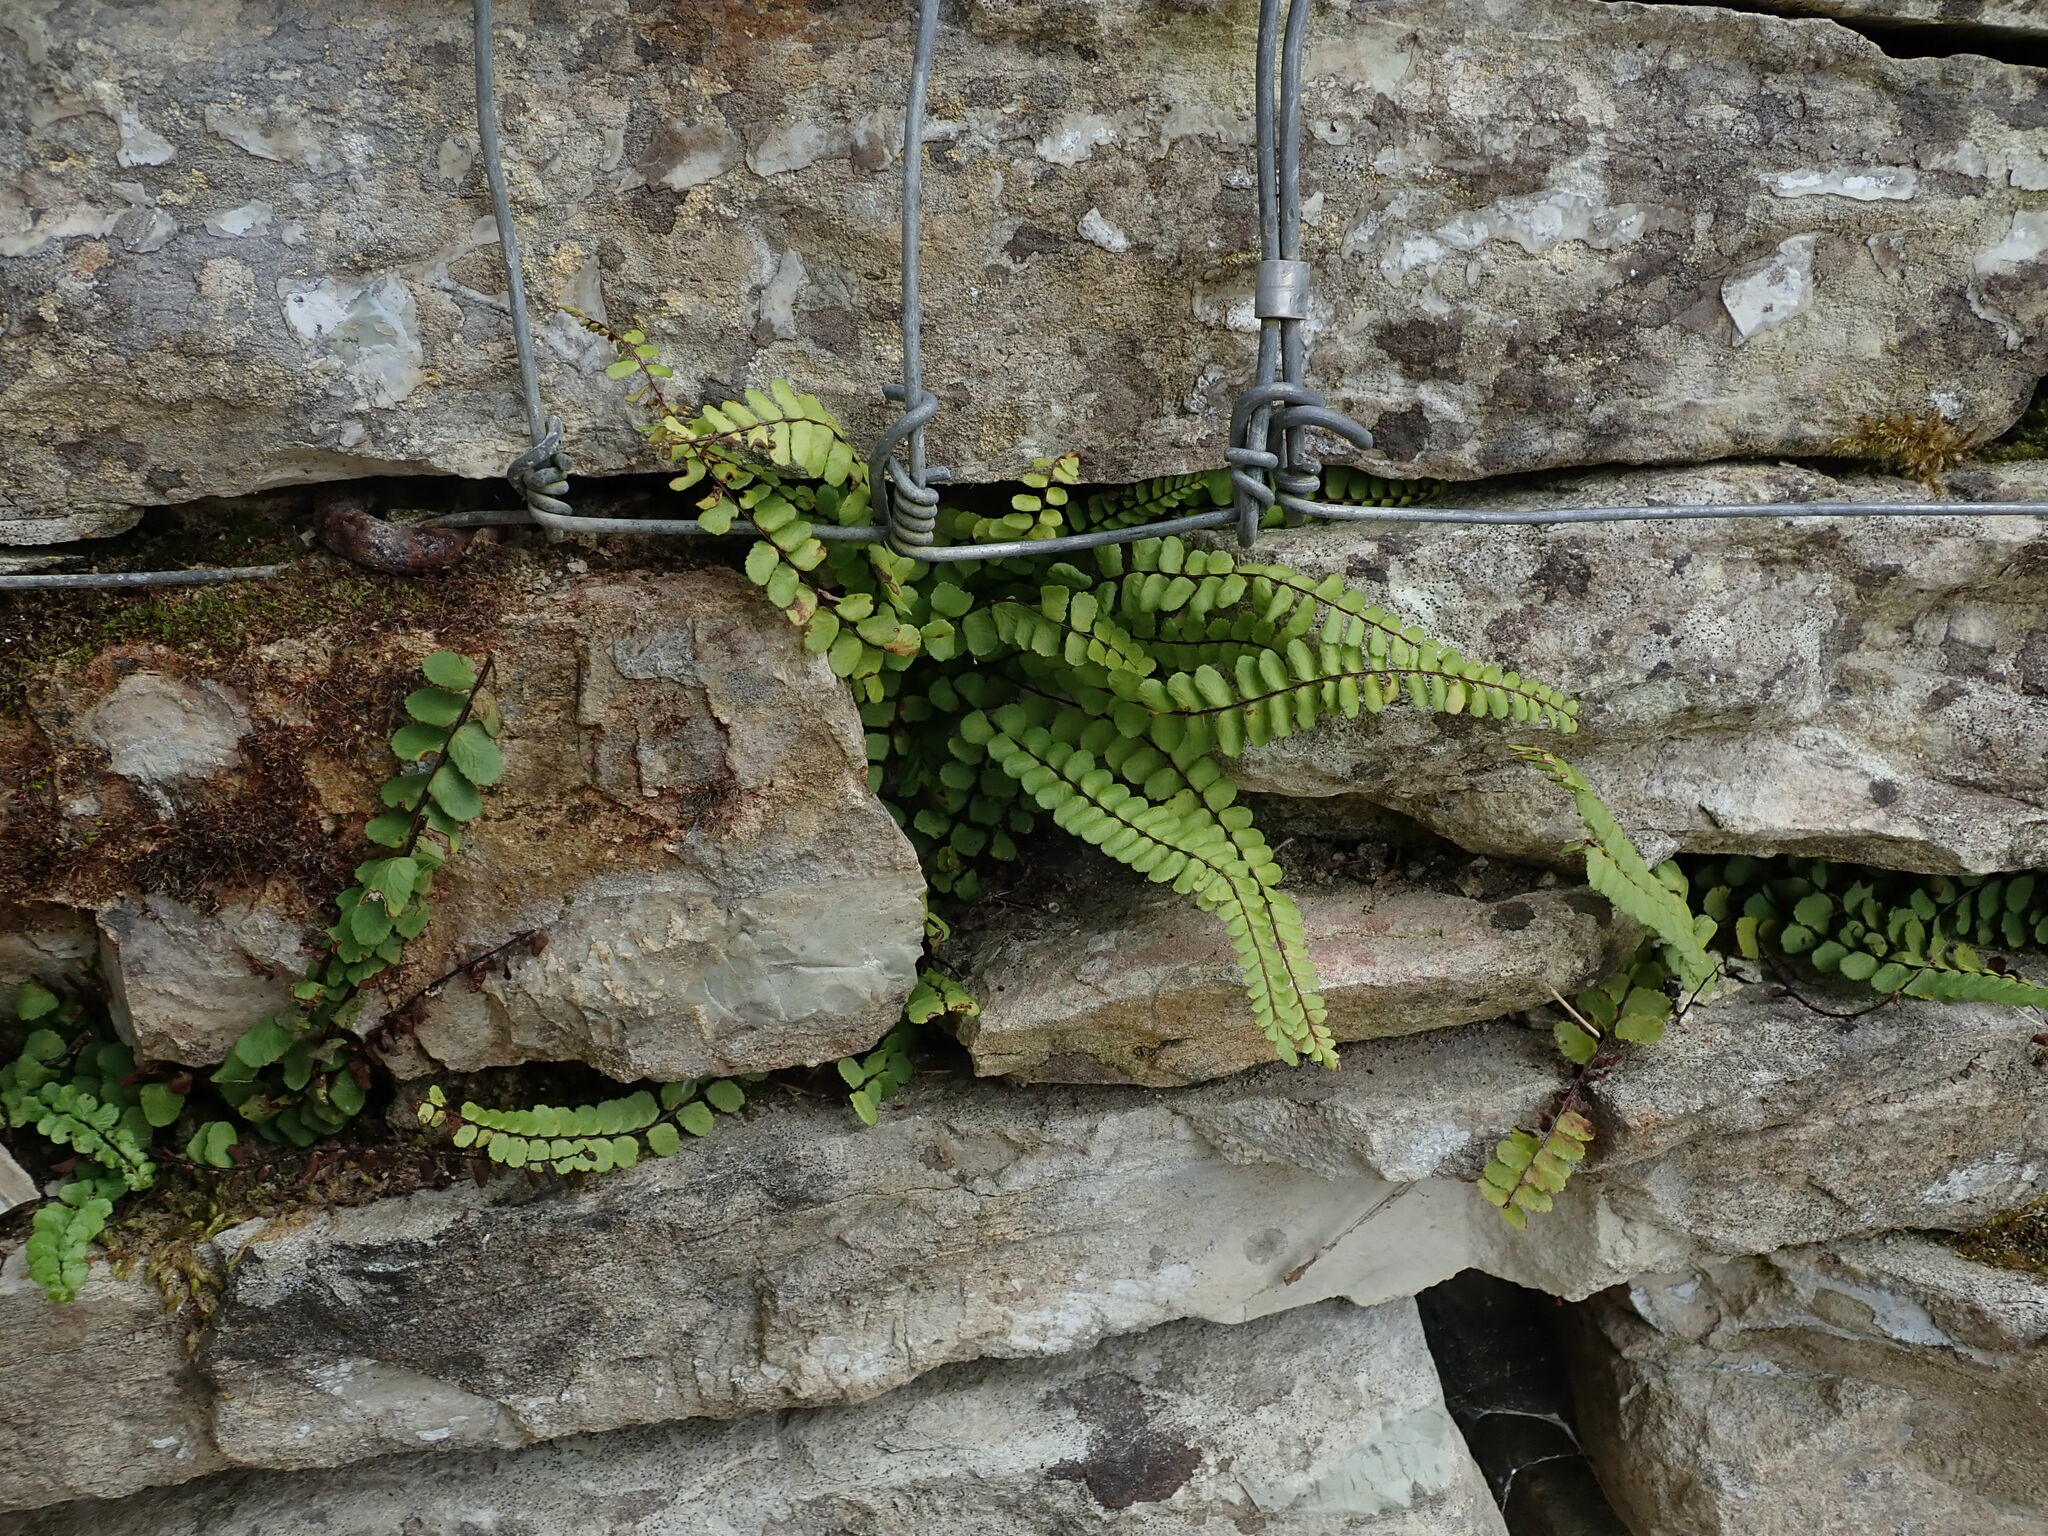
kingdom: Plantae
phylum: Tracheophyta
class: Polypodiopsida
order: Polypodiales
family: Aspleniaceae
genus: Asplenium
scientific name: Asplenium trichomanes
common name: Maidenhair spleenwort
